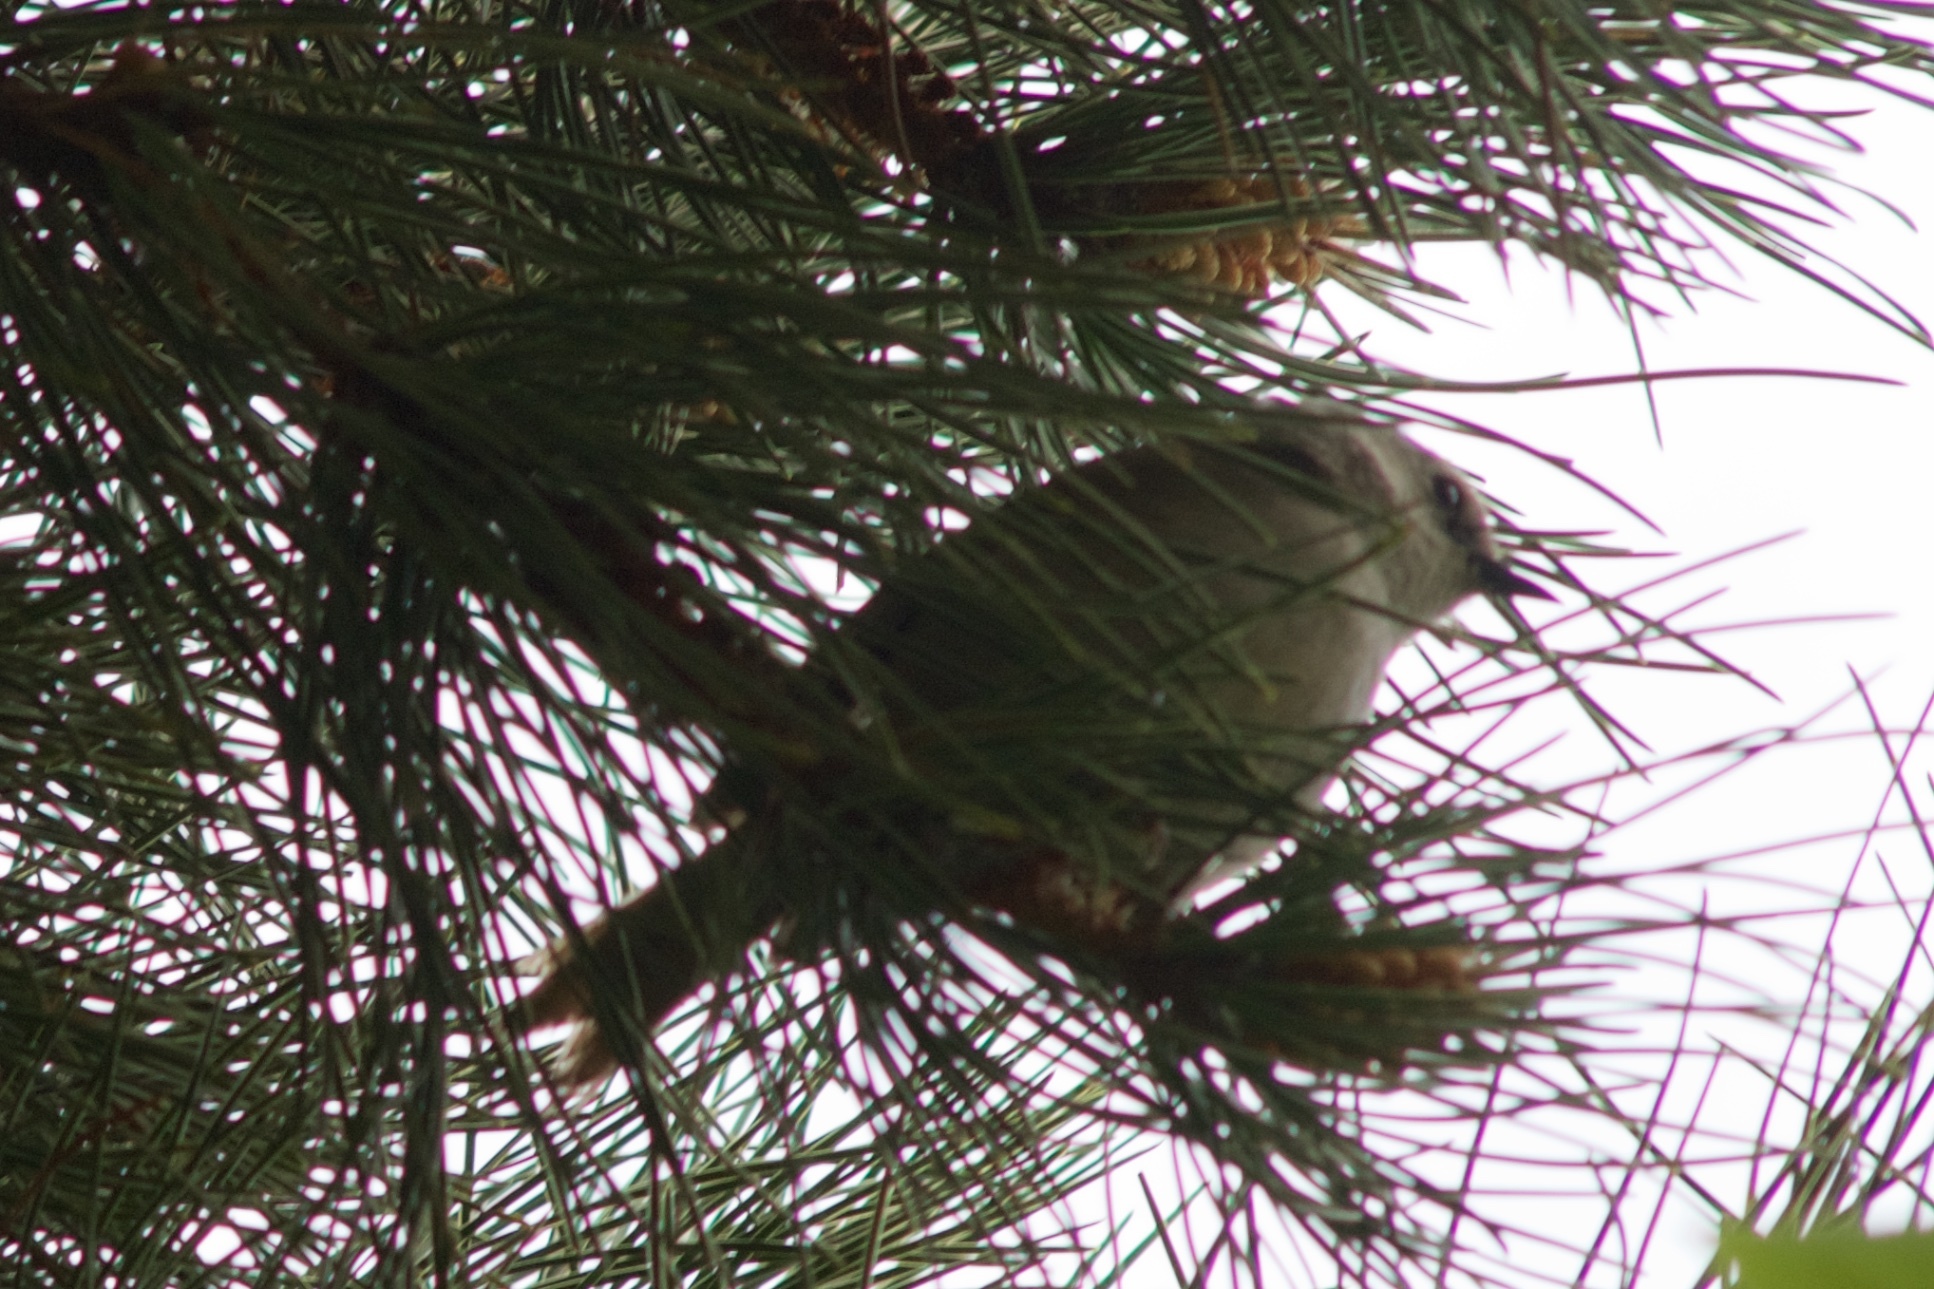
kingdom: Animalia
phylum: Chordata
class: Aves
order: Passeriformes
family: Acanthizidae
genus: Mohoua
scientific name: Mohoua albicilla
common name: Whitehead
